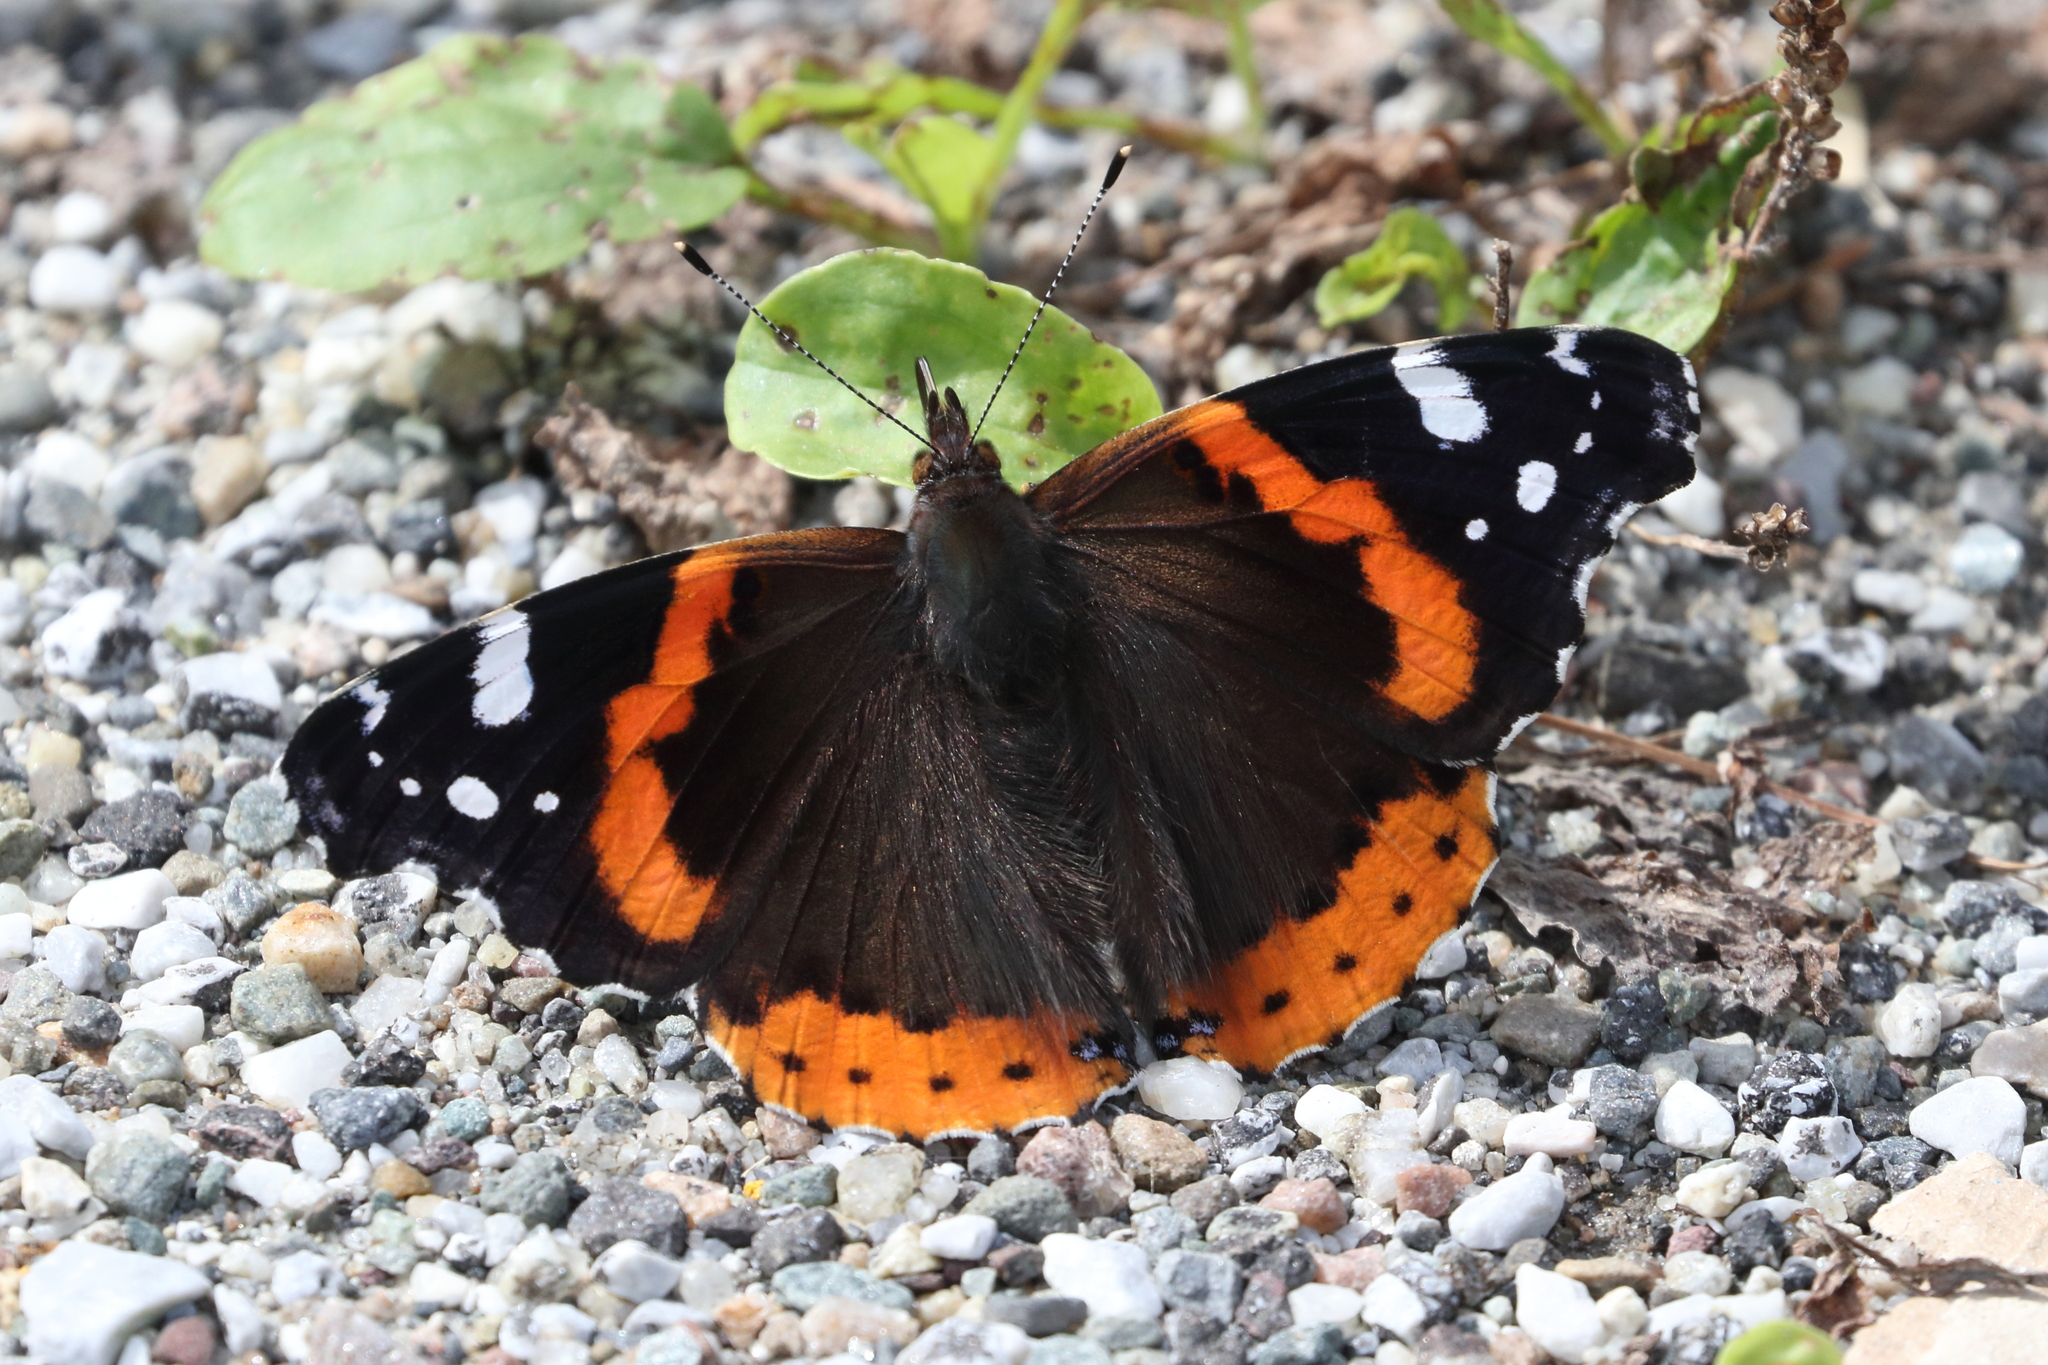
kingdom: Animalia
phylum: Arthropoda
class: Insecta
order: Lepidoptera
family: Nymphalidae
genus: Vanessa
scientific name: Vanessa atalanta
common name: Red admiral
